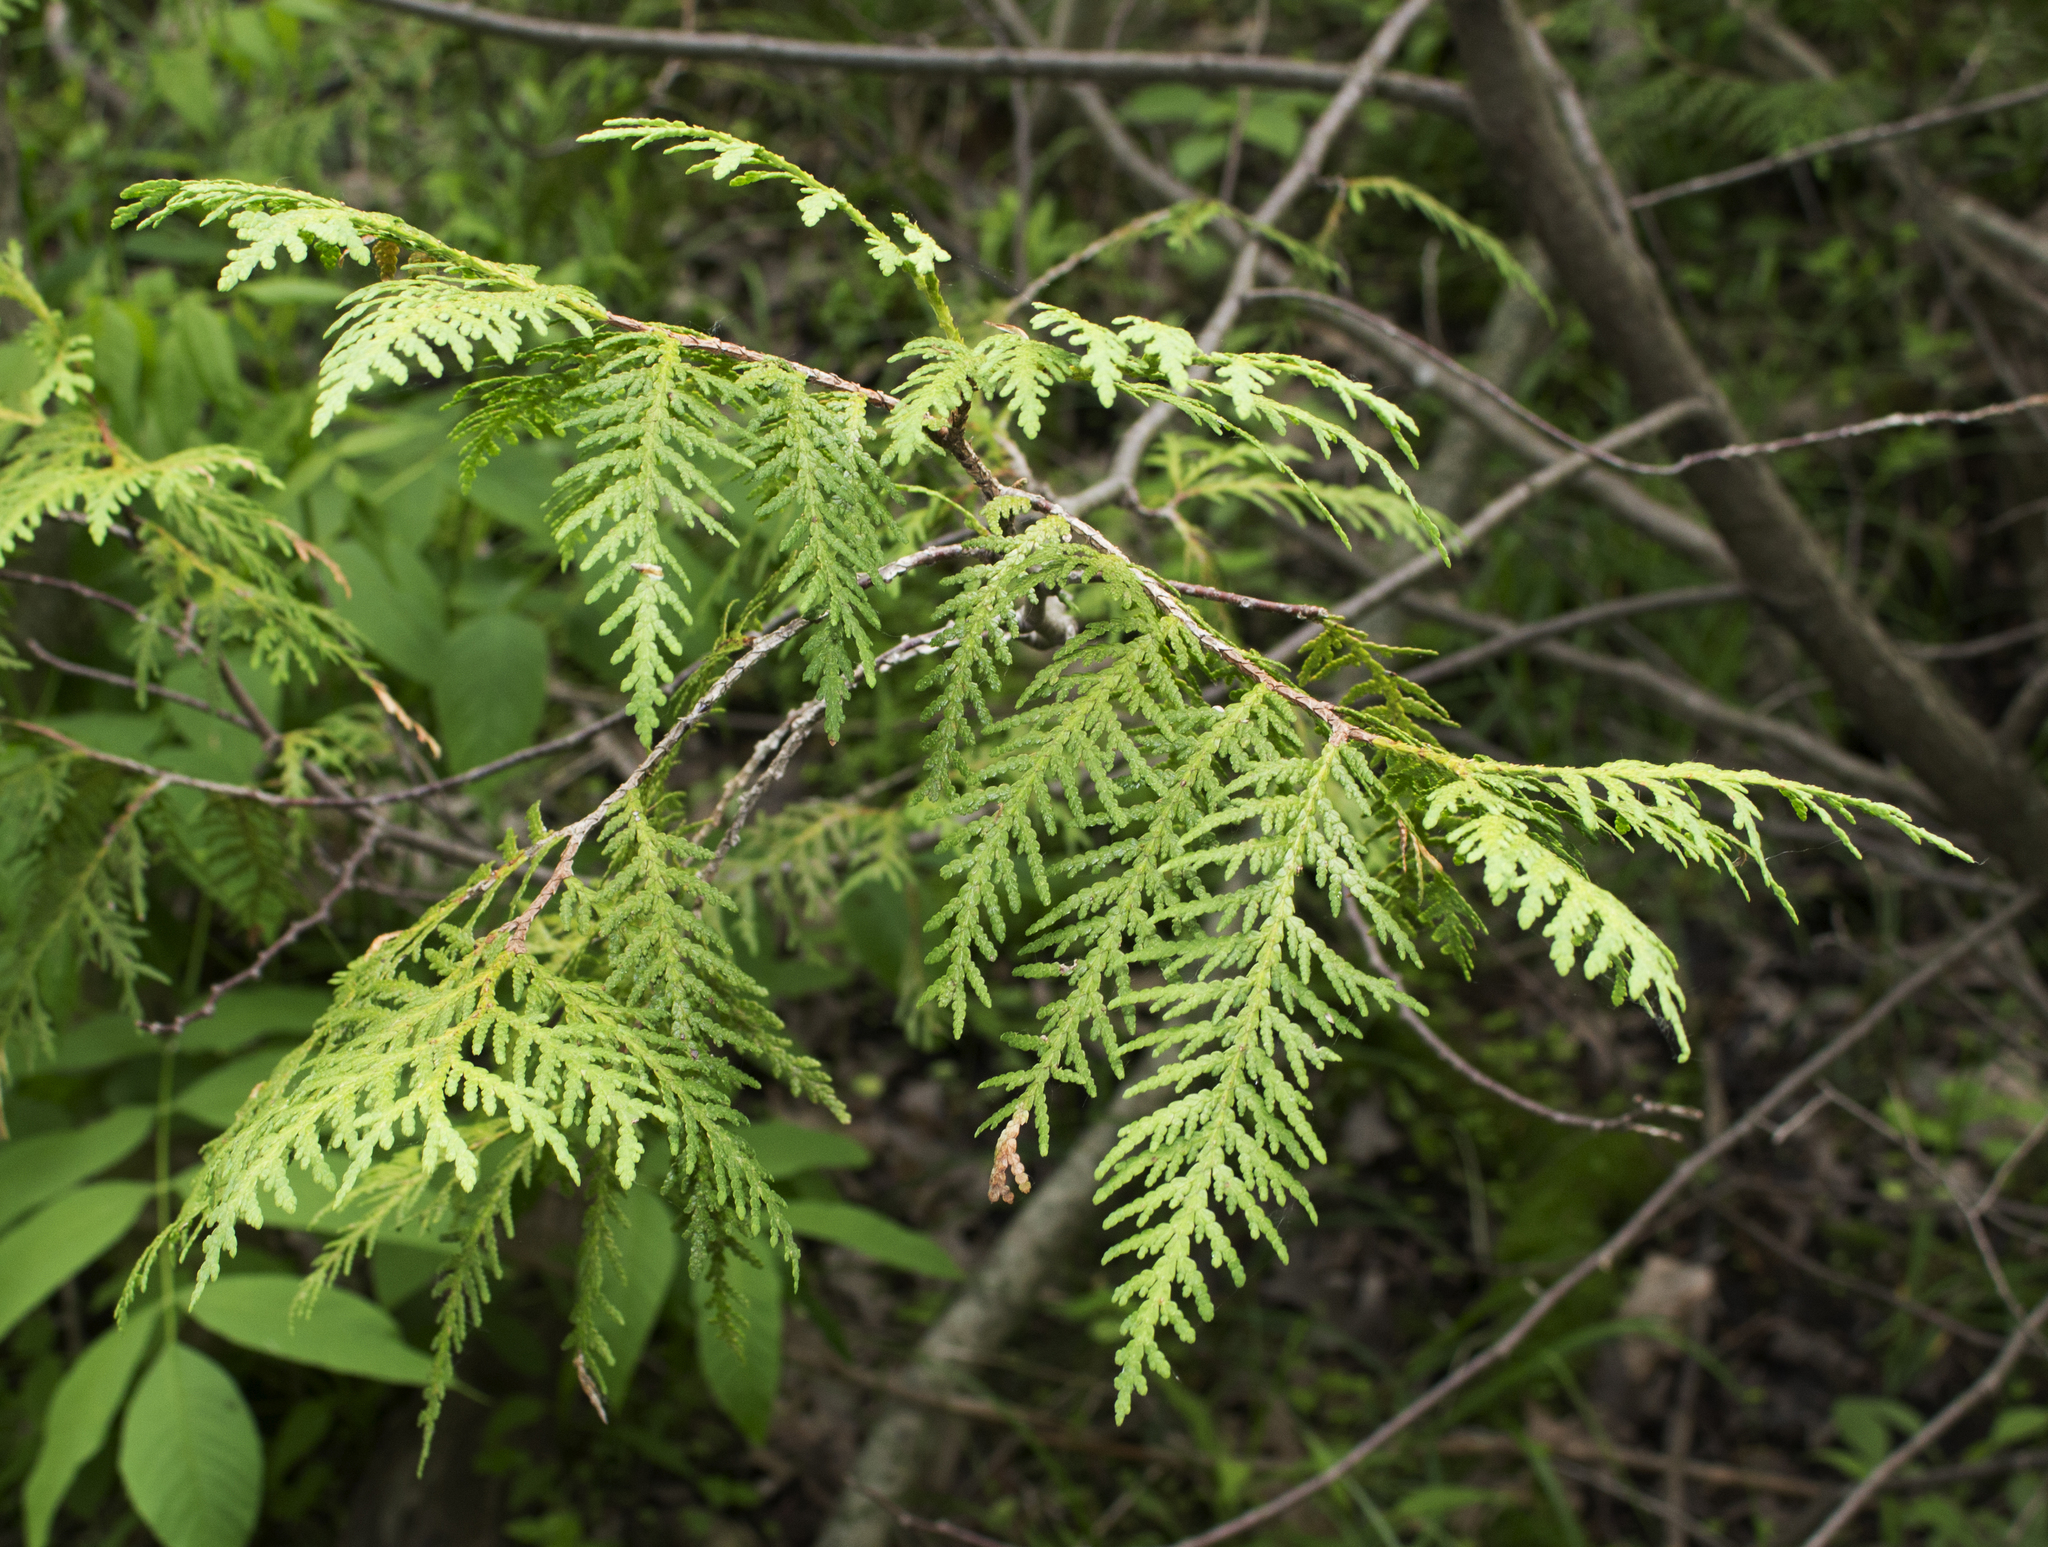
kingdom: Plantae
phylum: Tracheophyta
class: Pinopsida
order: Pinales
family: Cupressaceae
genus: Thuja
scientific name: Thuja occidentalis
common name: Northern white-cedar
